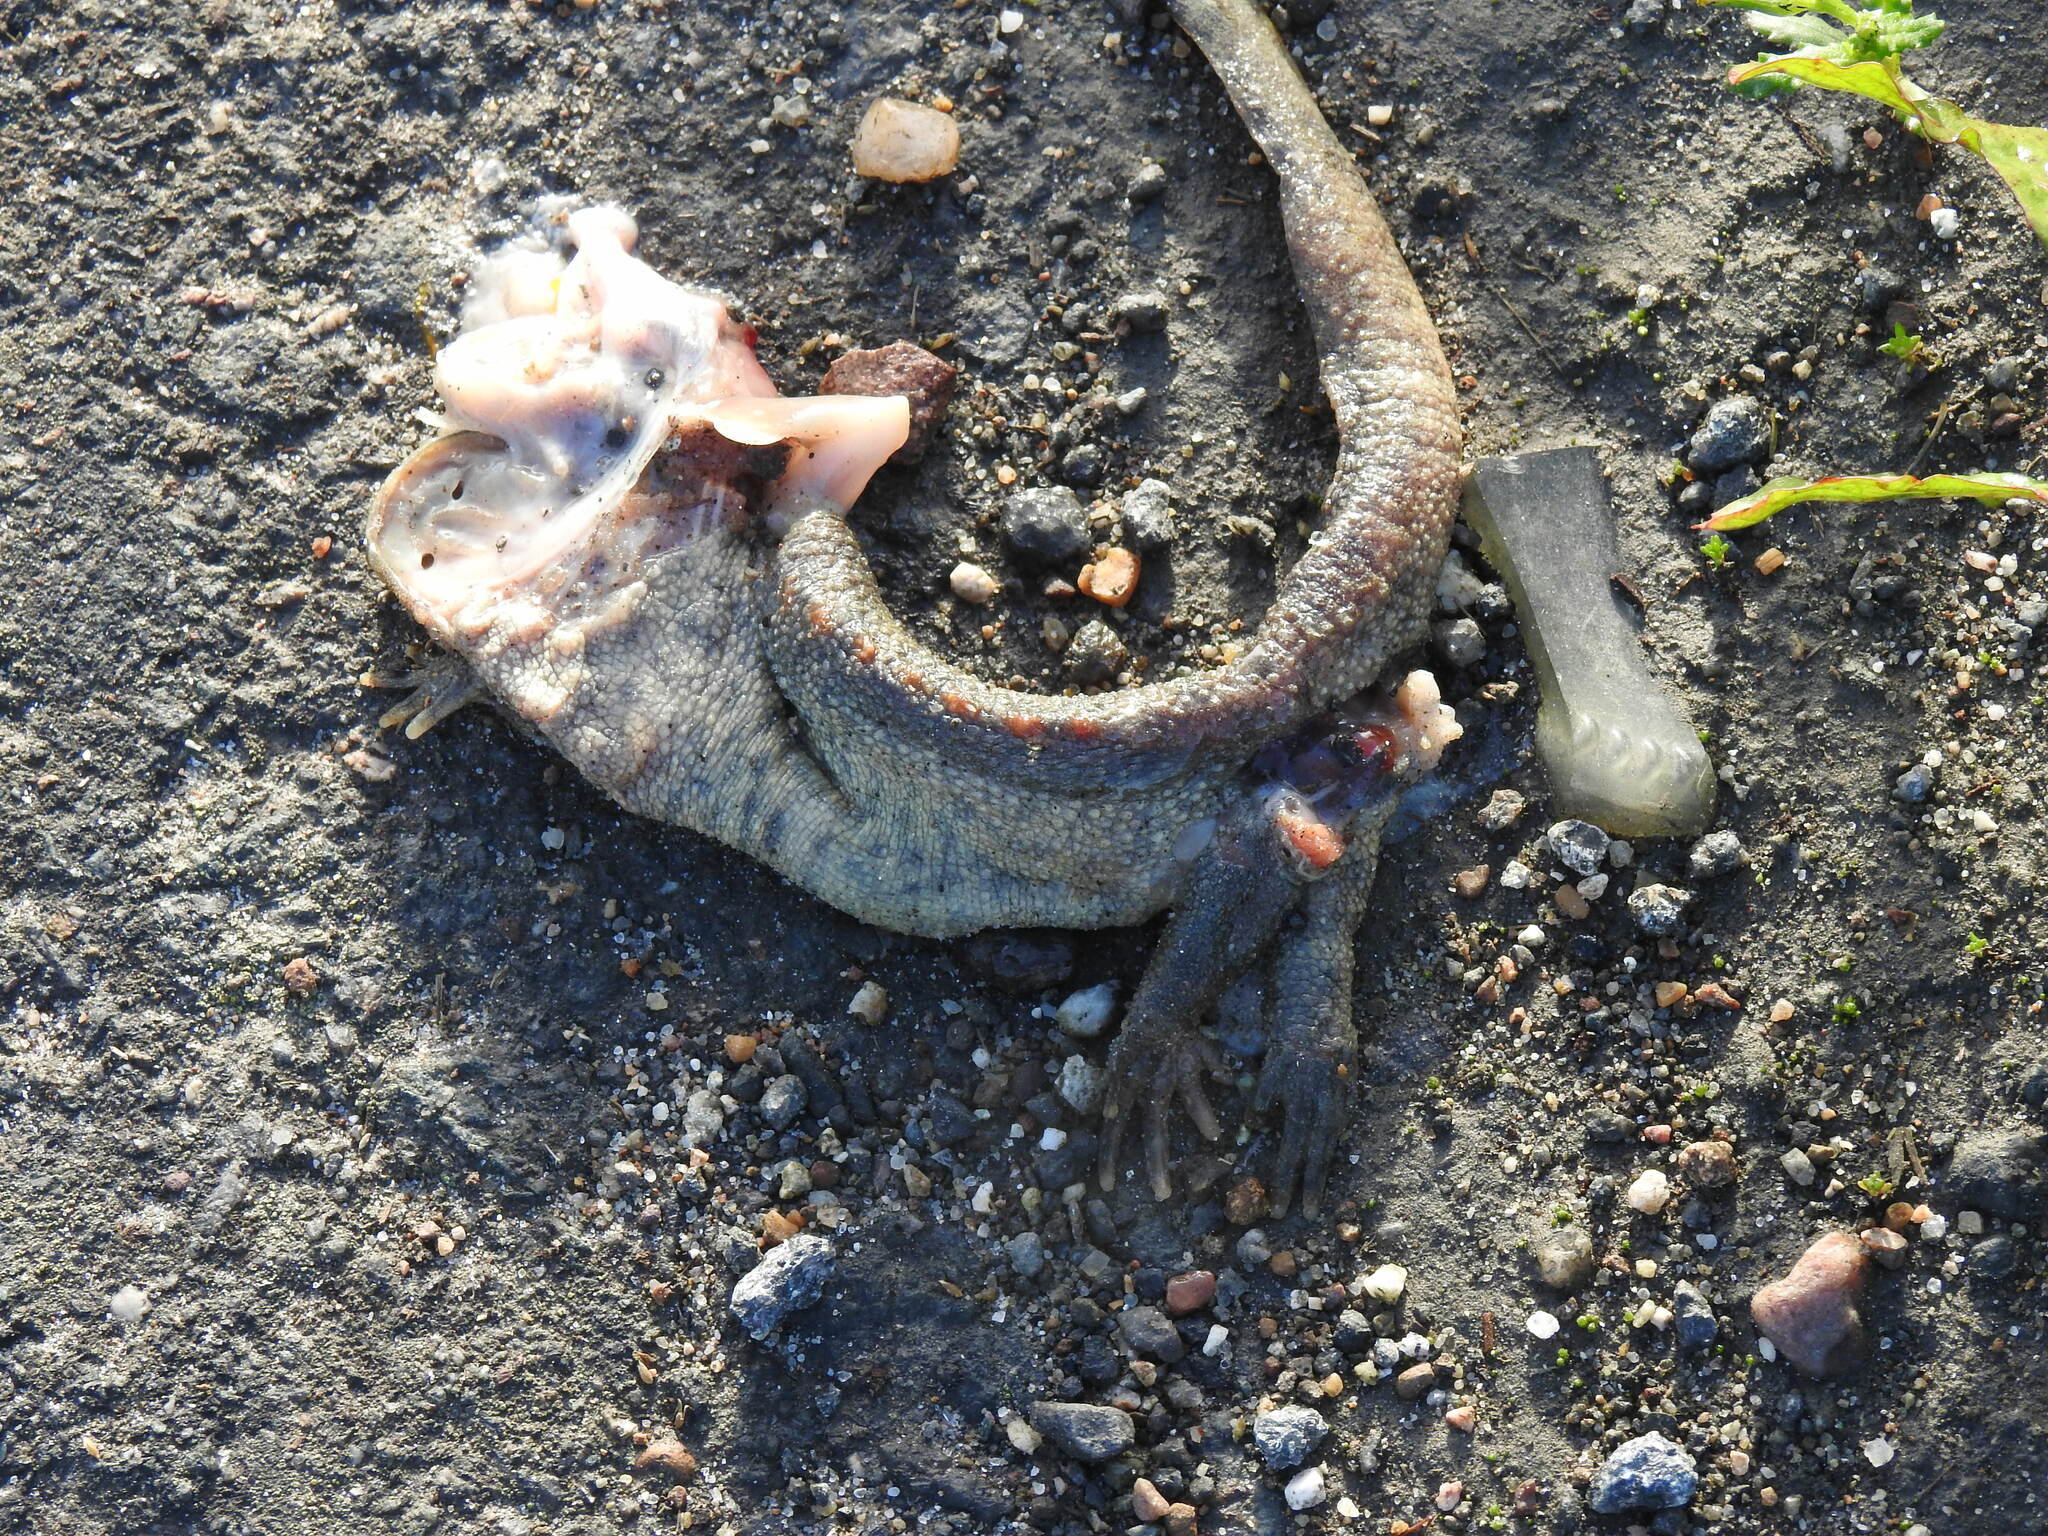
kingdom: Animalia
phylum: Chordata
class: Amphibia
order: Caudata
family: Salamandridae
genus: Pleurodeles
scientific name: Pleurodeles waltl
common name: Iberian ribbed newt
